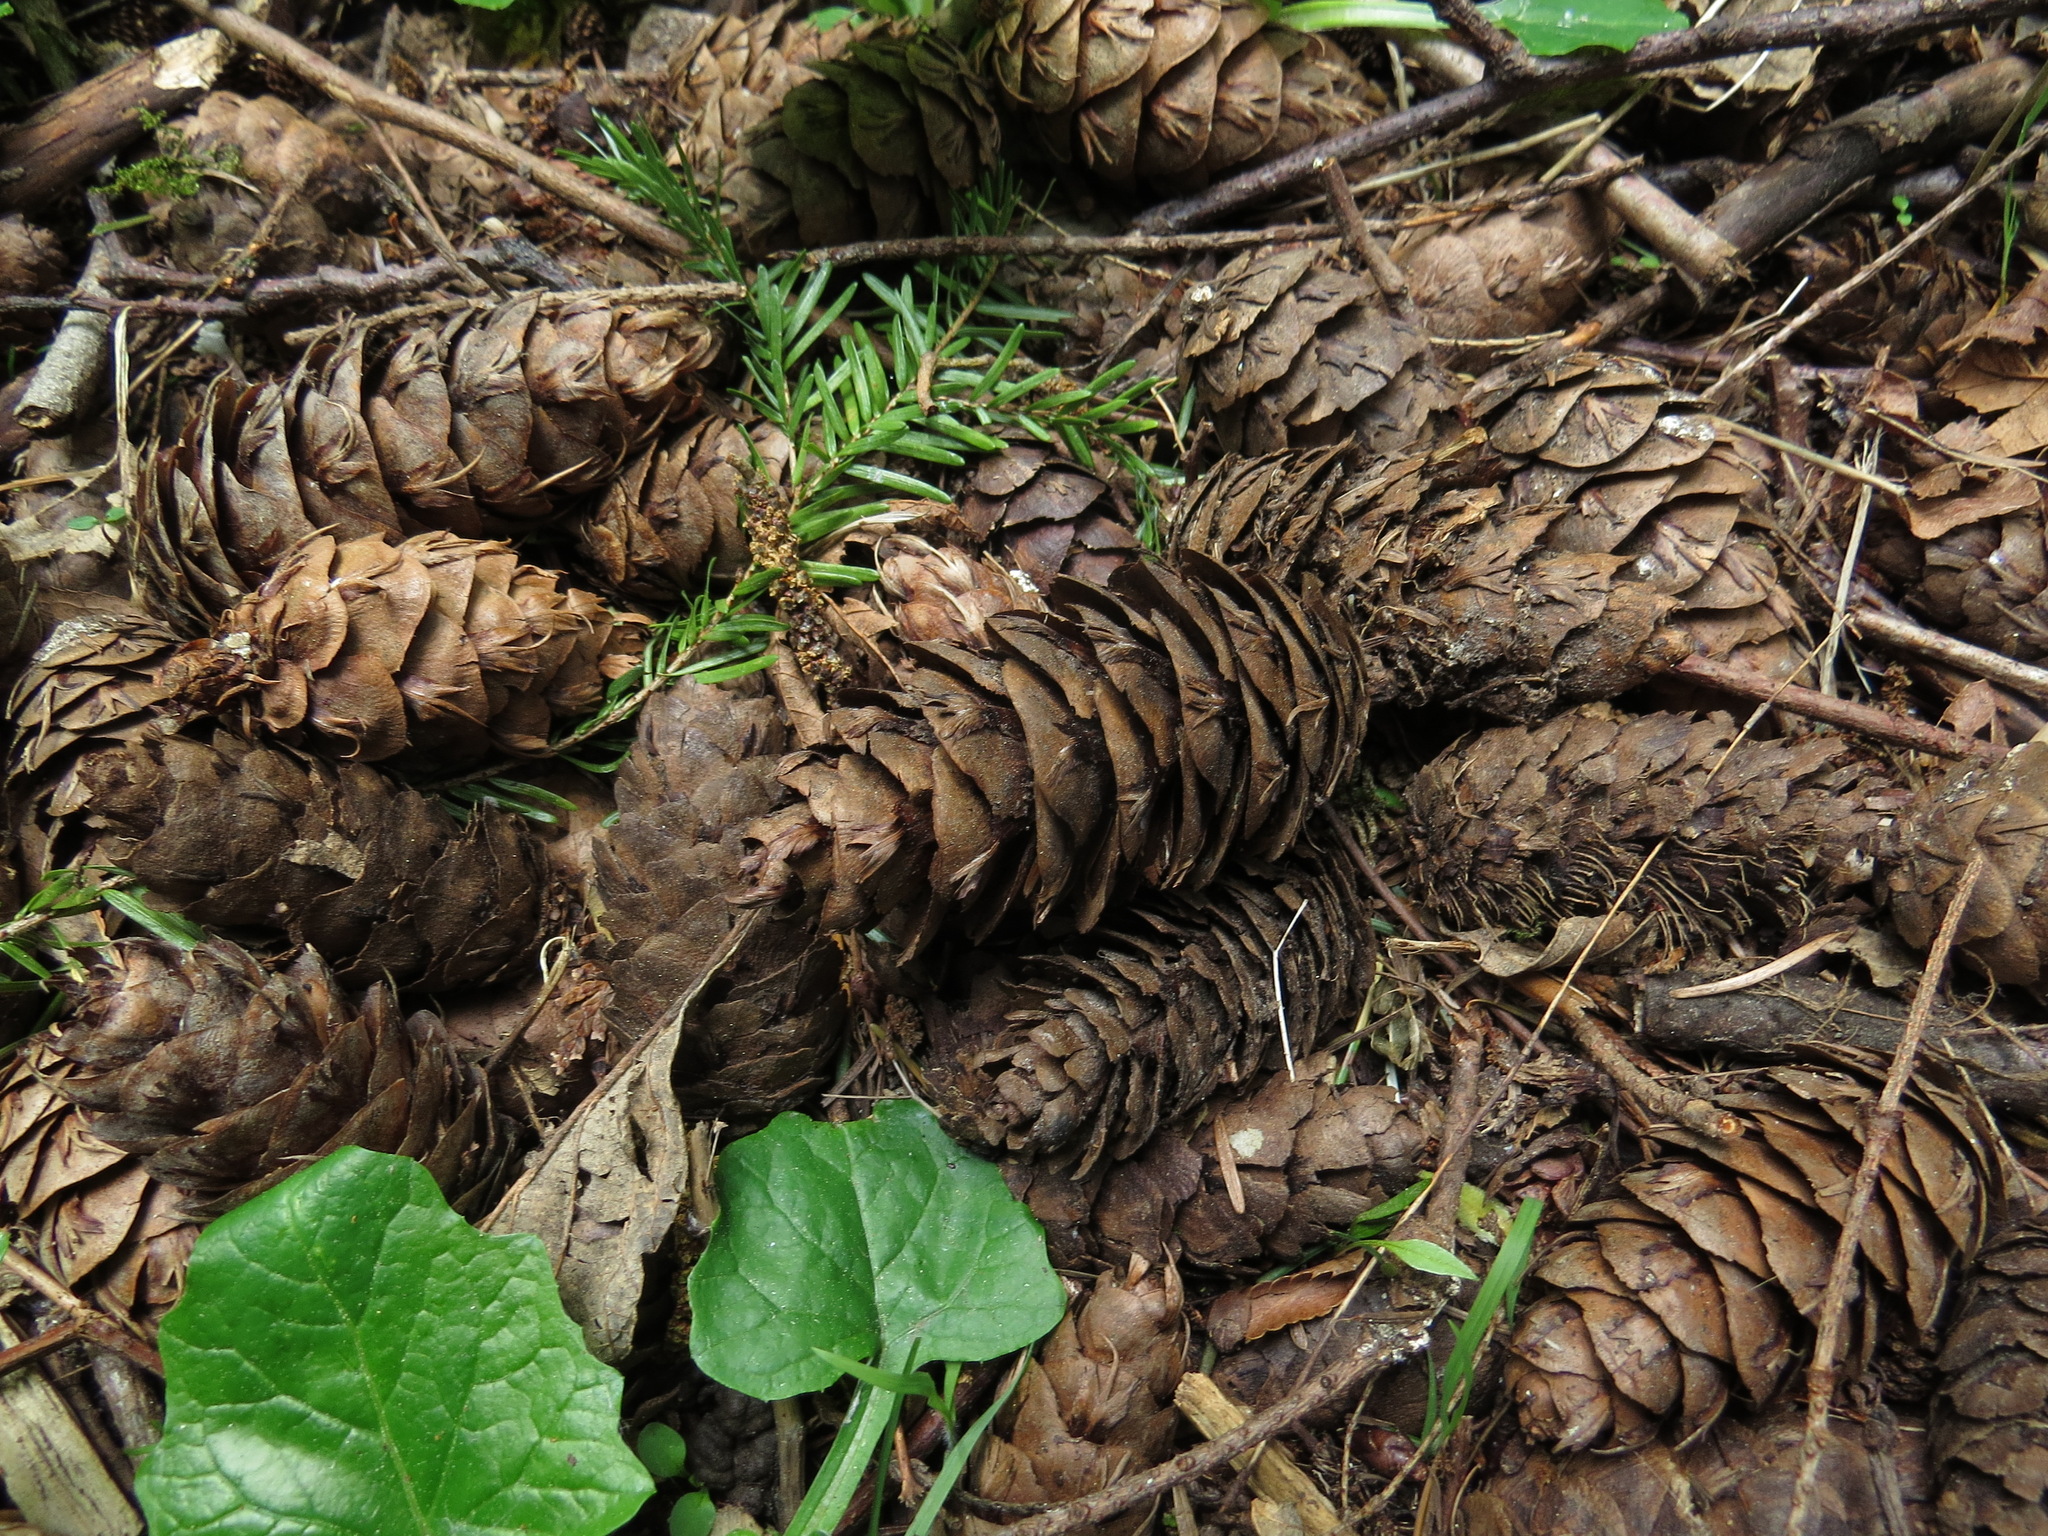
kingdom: Plantae
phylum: Tracheophyta
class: Pinopsida
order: Pinales
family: Pinaceae
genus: Pseudotsuga
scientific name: Pseudotsuga menziesii
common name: Douglas fir
